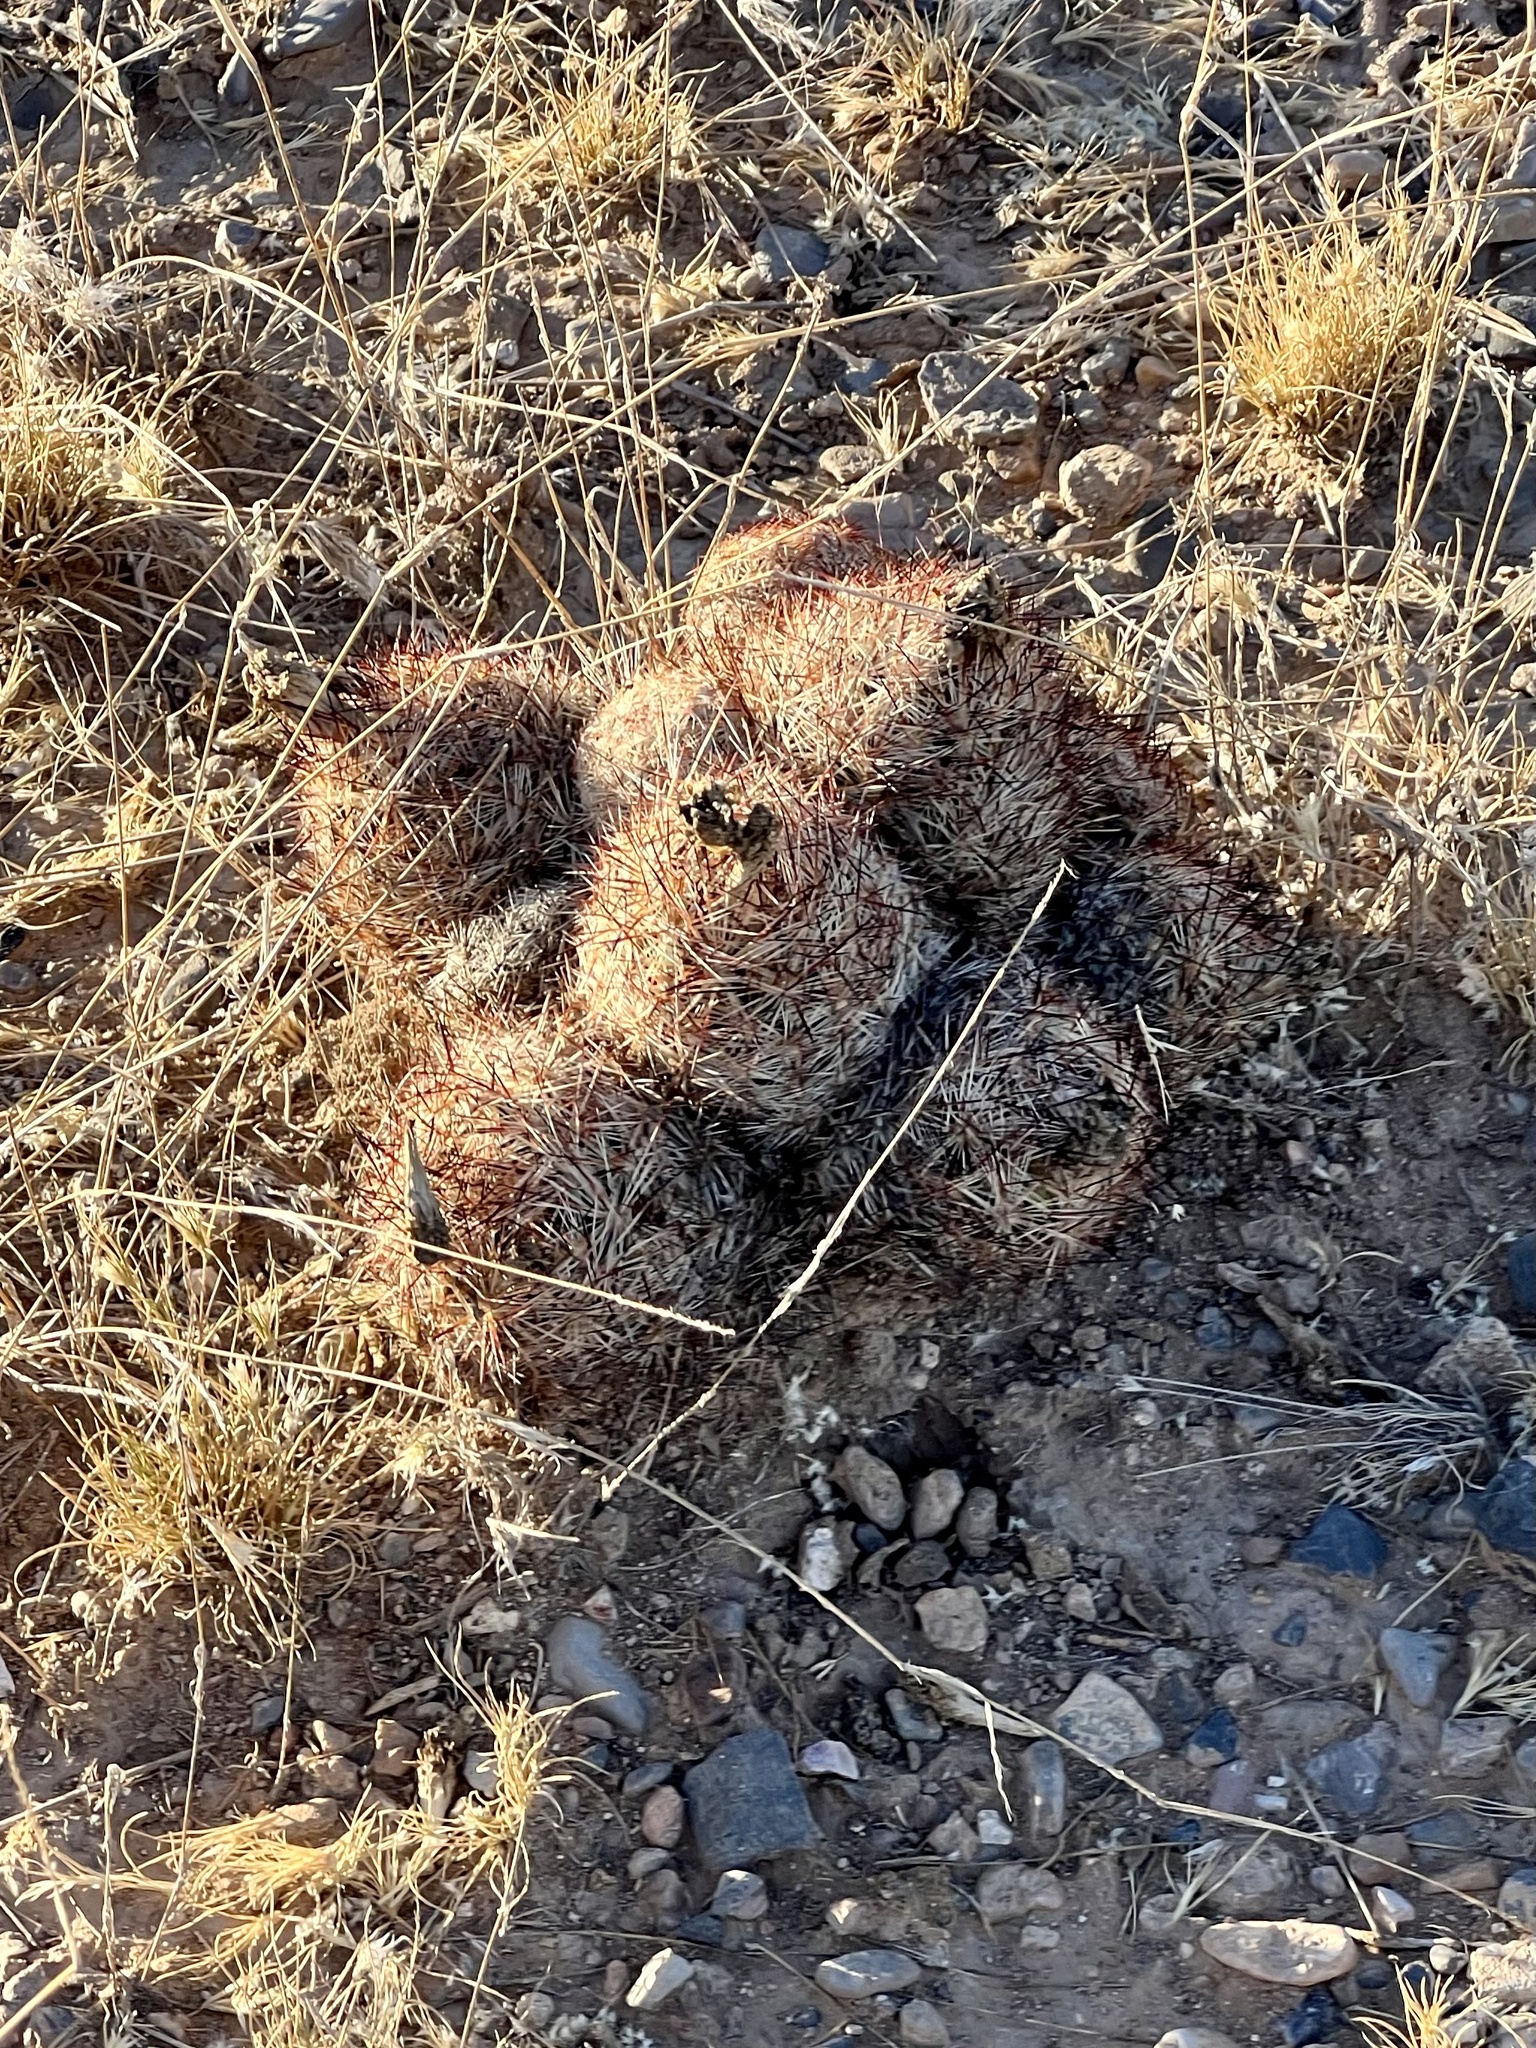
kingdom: Plantae
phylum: Tracheophyta
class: Magnoliopsida
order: Caryophyllales
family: Cactaceae
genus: Pelecyphora
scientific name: Pelecyphora vivipara
